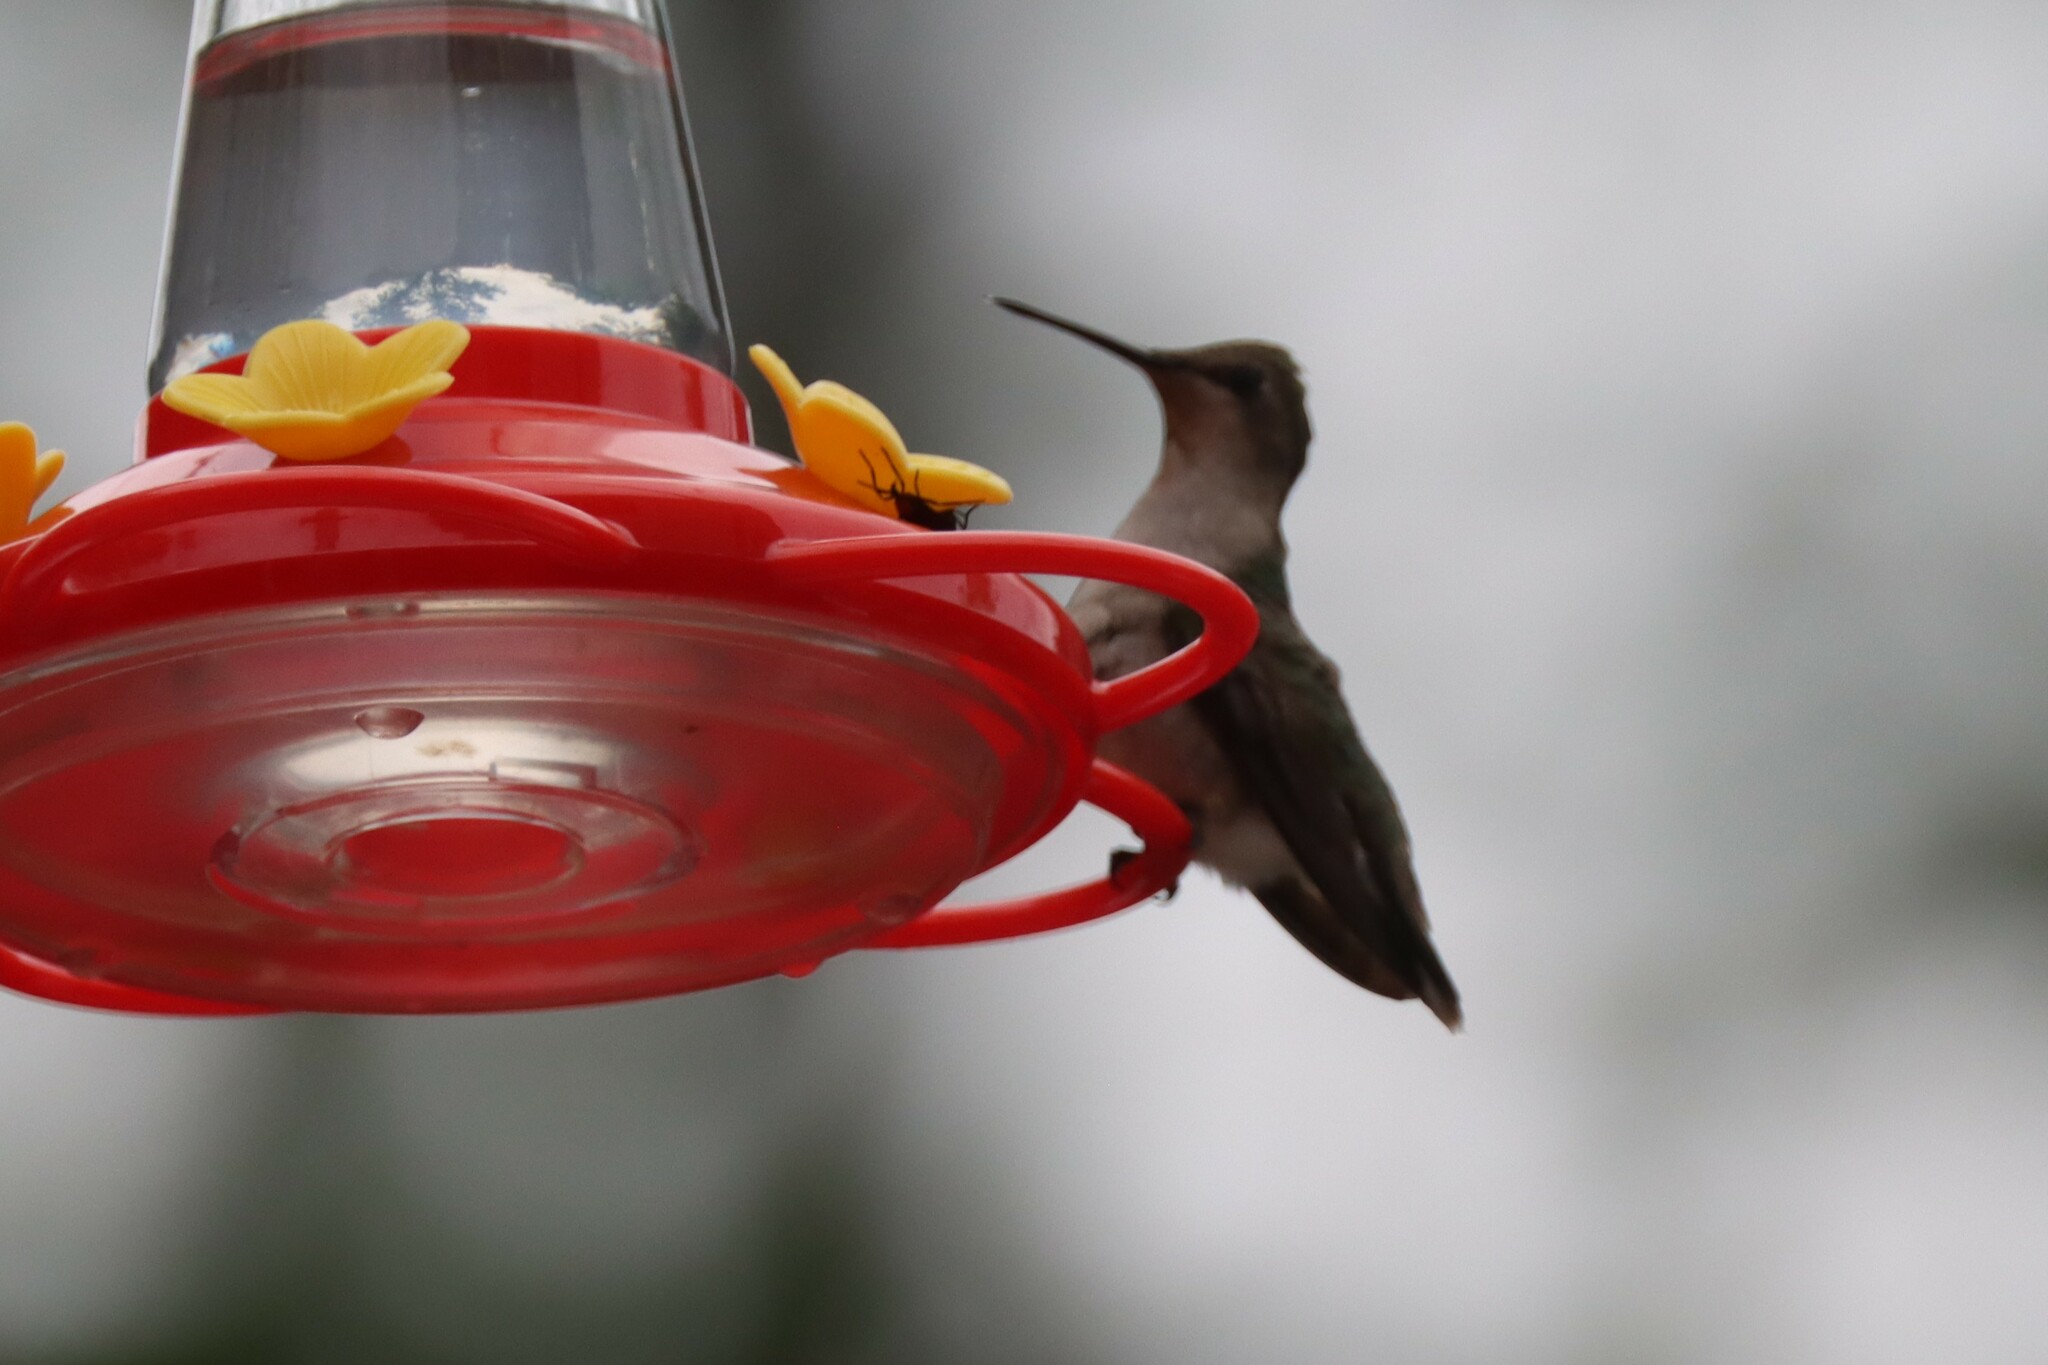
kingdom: Animalia
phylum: Chordata
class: Aves
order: Apodiformes
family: Trochilidae
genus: Archilochus
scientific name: Archilochus colubris
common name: Ruby-throated hummingbird
